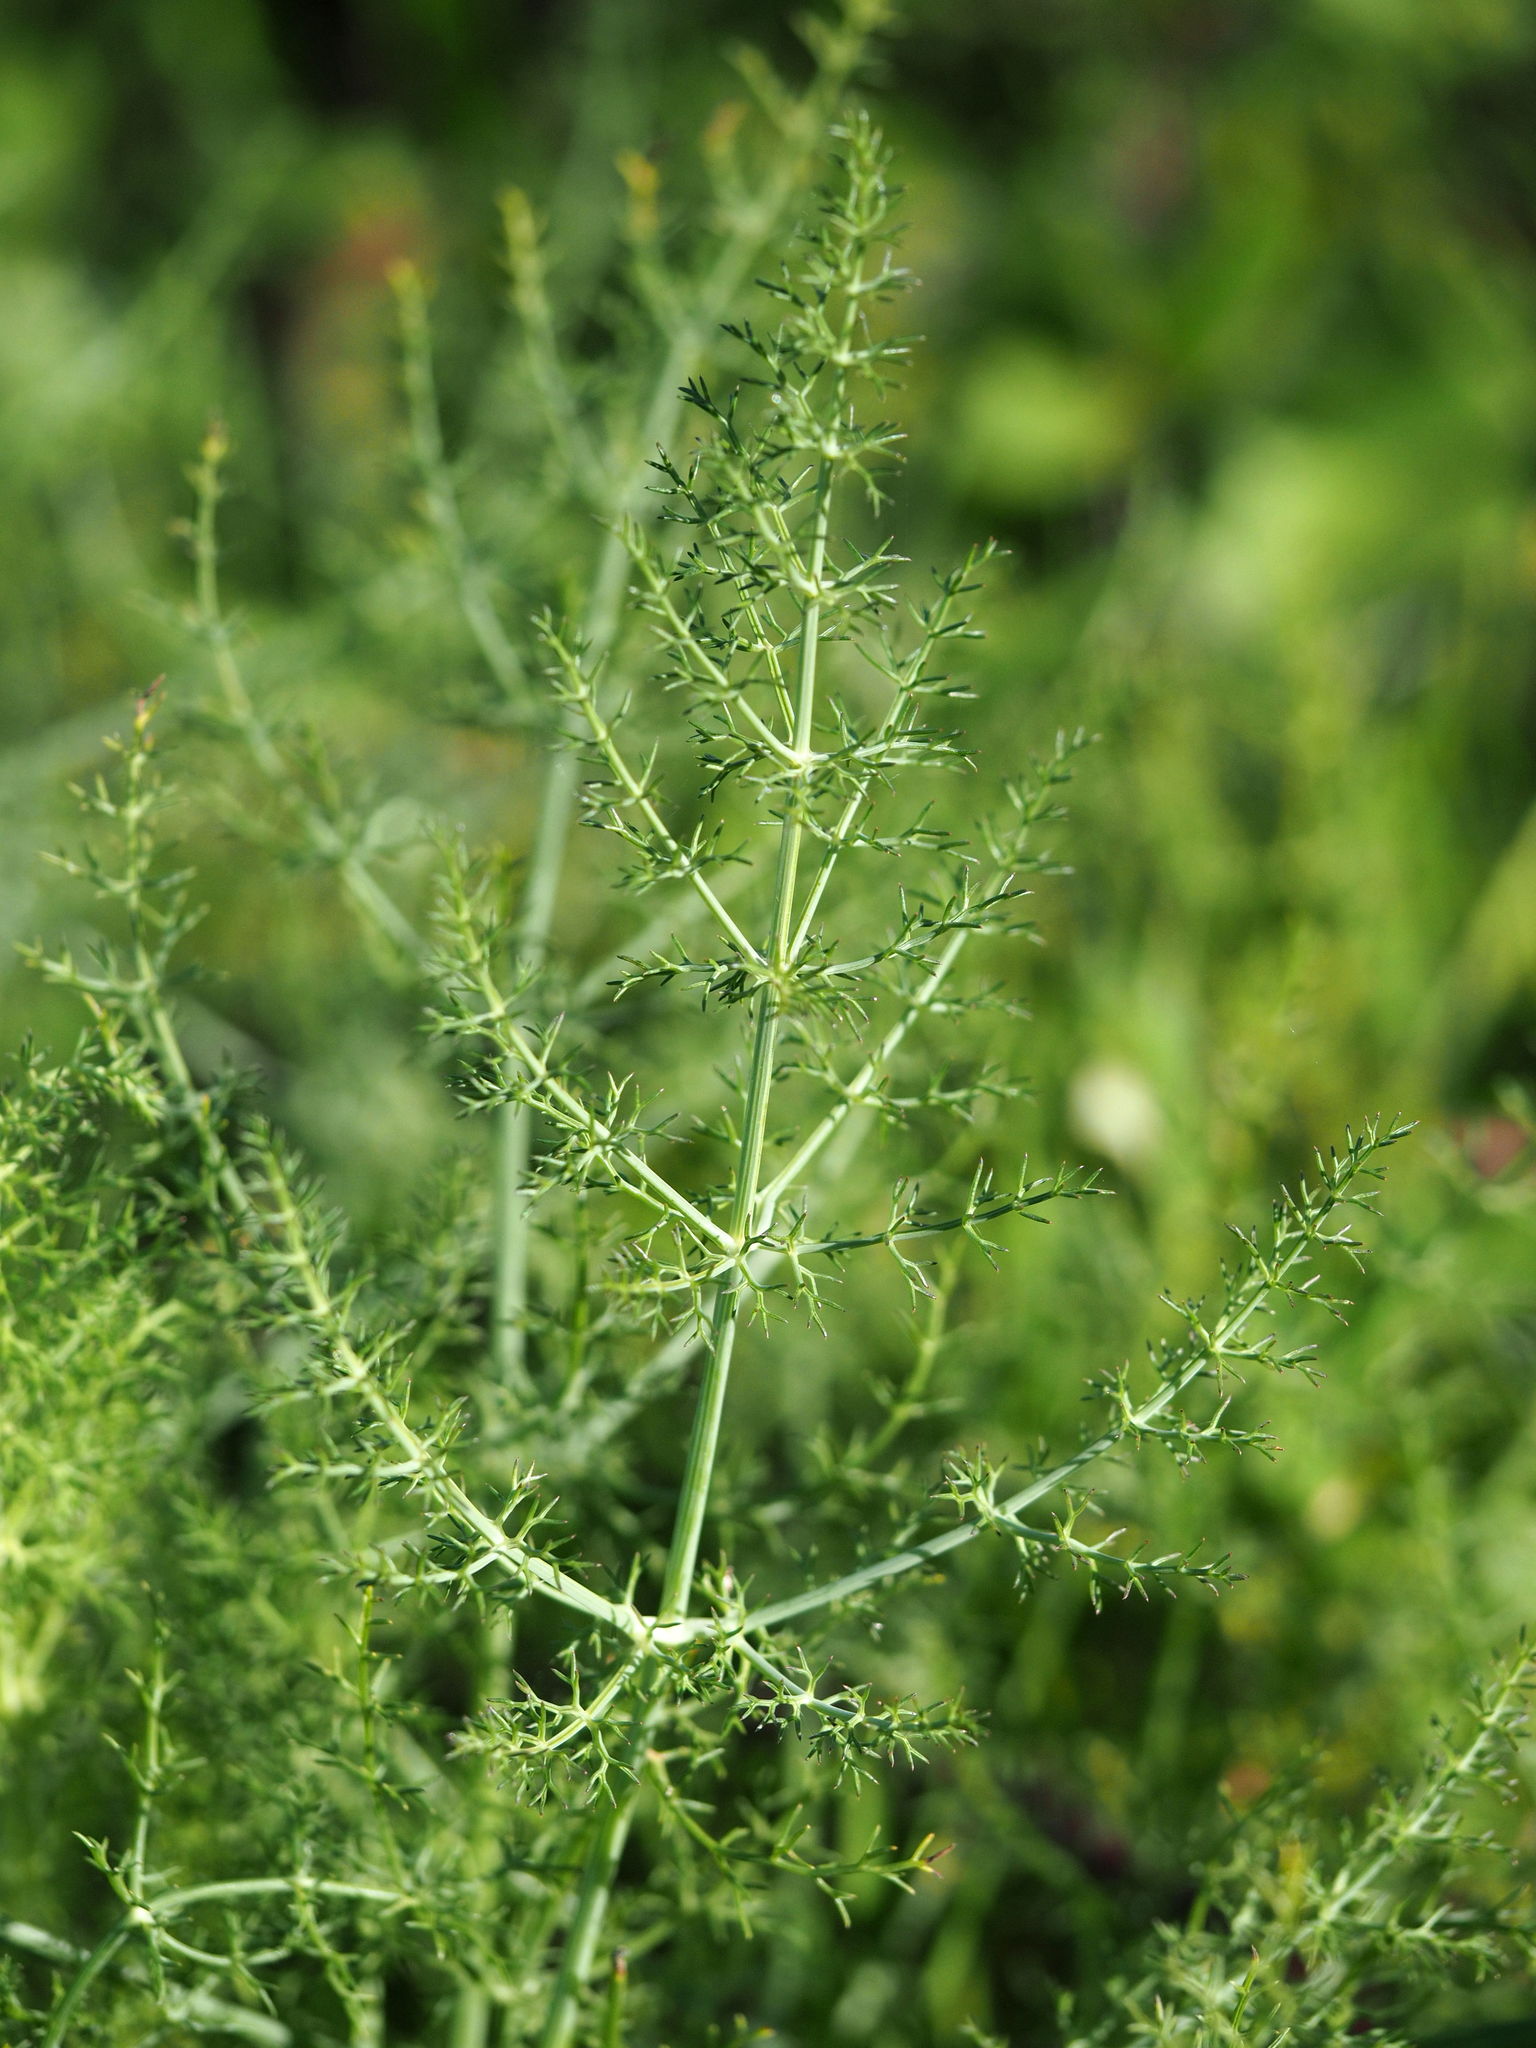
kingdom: Plantae
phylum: Tracheophyta
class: Magnoliopsida
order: Apiales
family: Apiaceae
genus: Foeniculum
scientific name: Foeniculum vulgare
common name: Fennel
